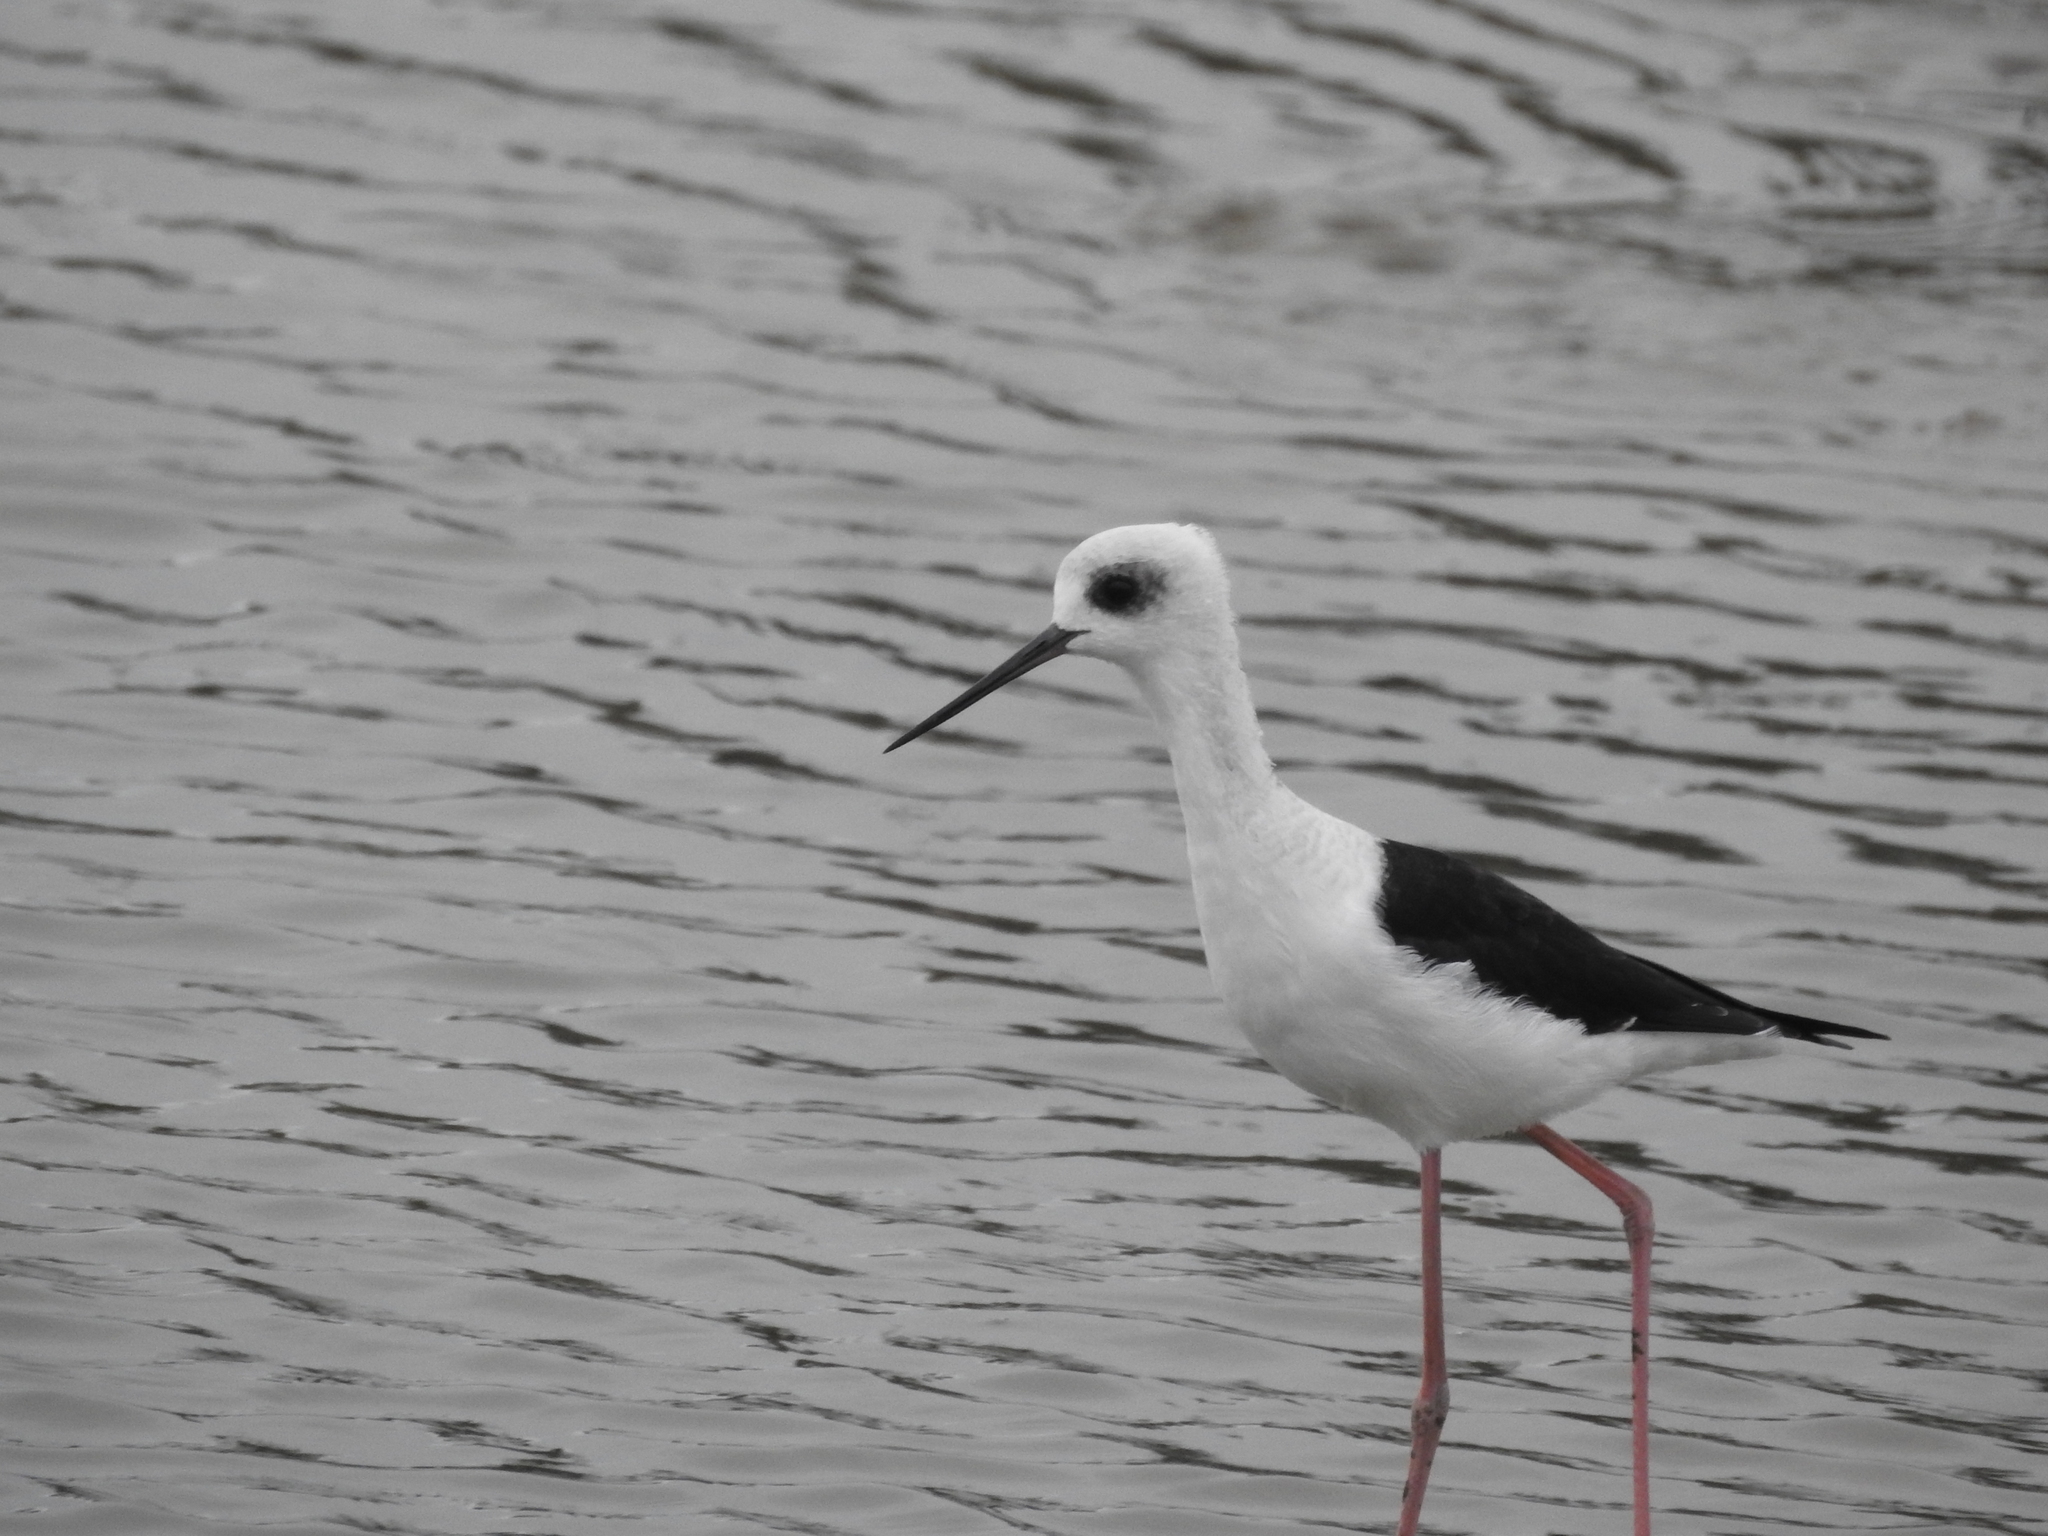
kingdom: Animalia
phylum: Chordata
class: Aves
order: Charadriiformes
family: Recurvirostridae
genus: Himantopus
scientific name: Himantopus leucocephalus
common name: White-headed stilt
